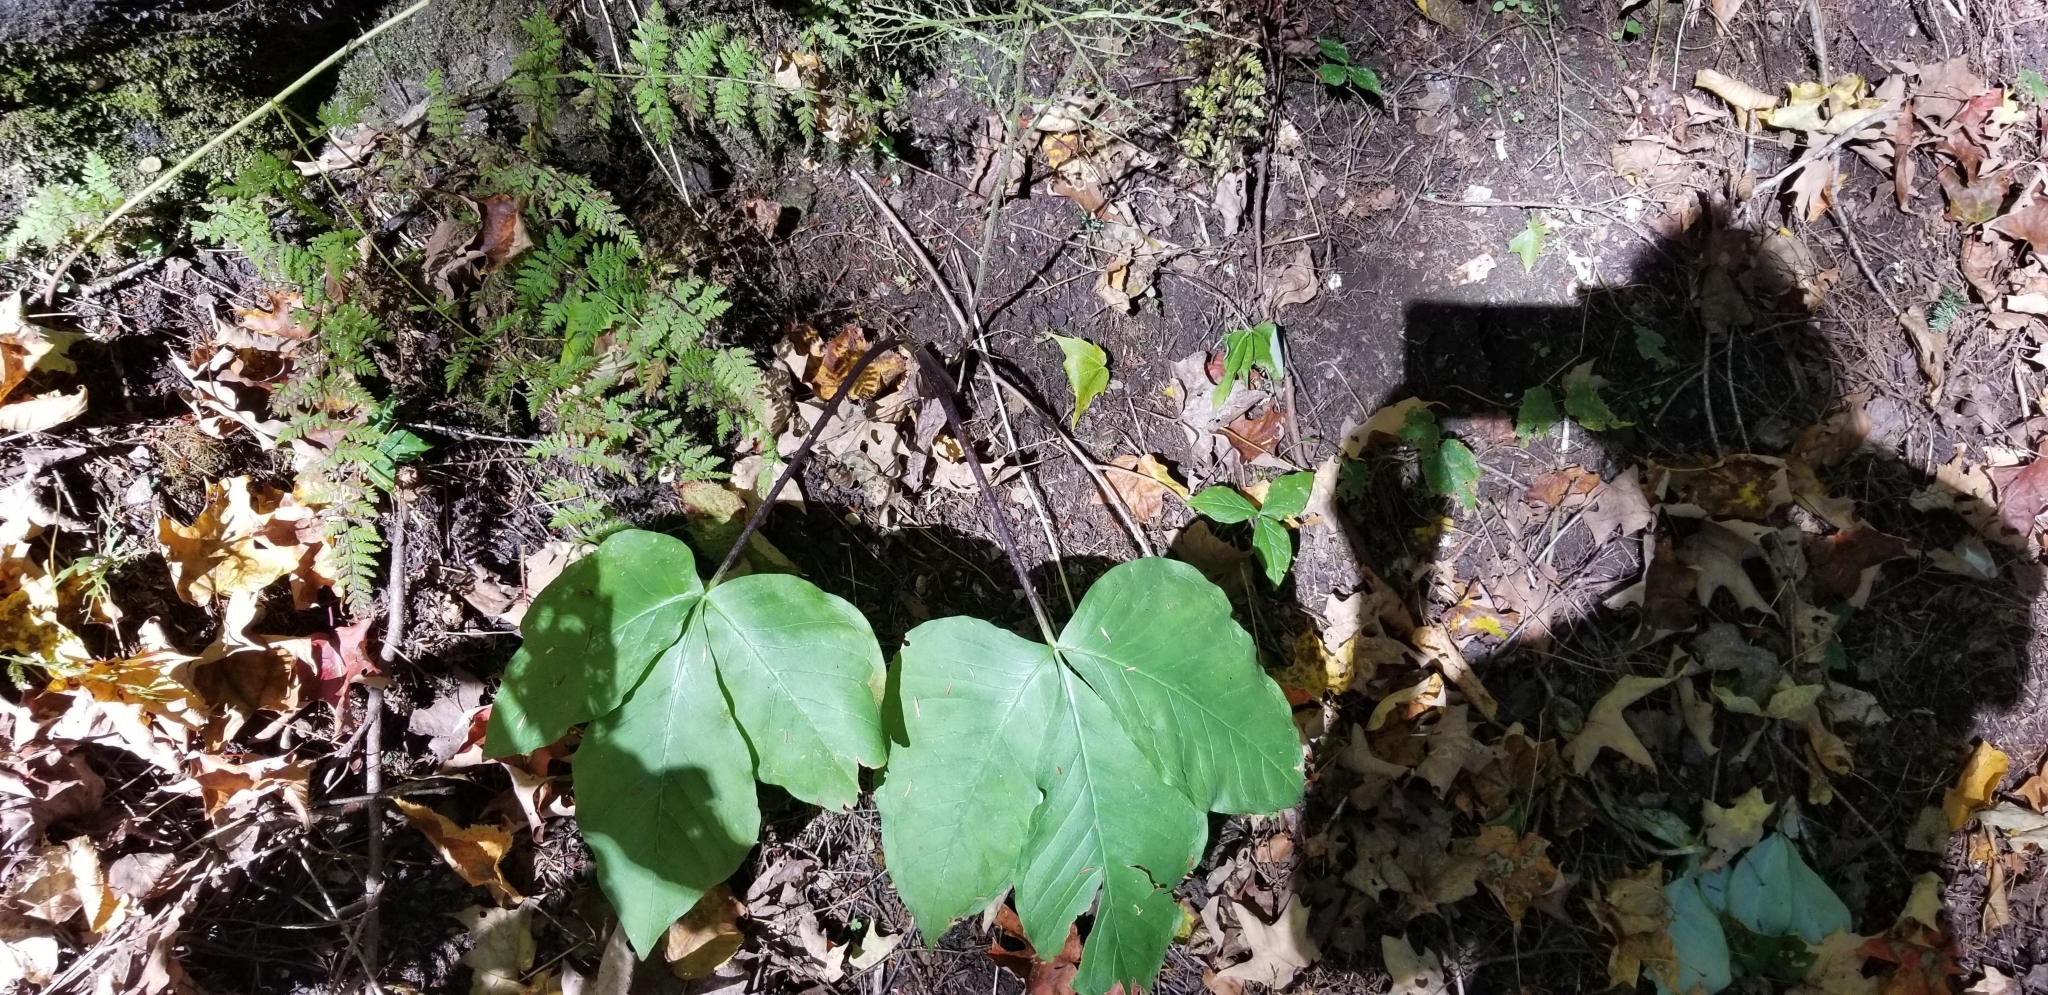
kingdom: Plantae
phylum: Tracheophyta
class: Liliopsida
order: Alismatales
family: Araceae
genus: Arisaema
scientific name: Arisaema triphyllum
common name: Jack-in-the-pulpit
